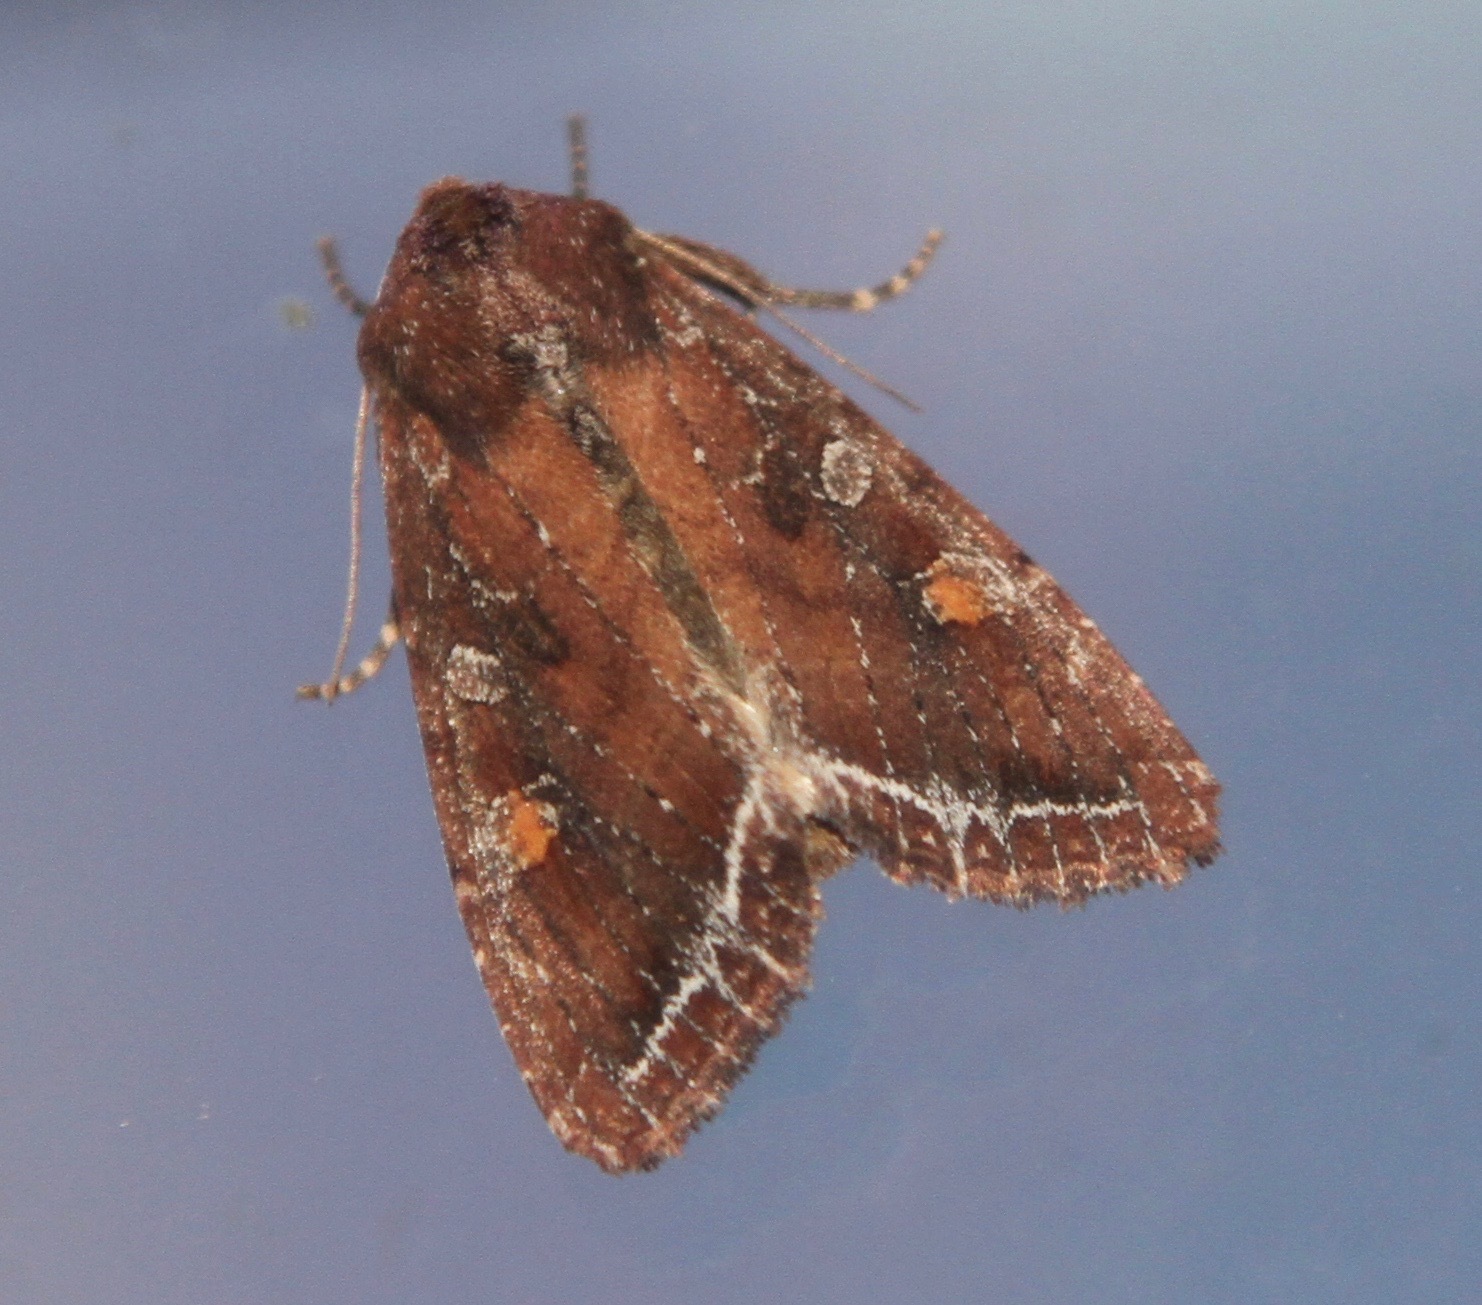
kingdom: Animalia
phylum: Arthropoda
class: Insecta
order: Lepidoptera
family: Noctuidae
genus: Lacanobia
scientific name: Lacanobia oleracea
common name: Bright-line brown-eye
